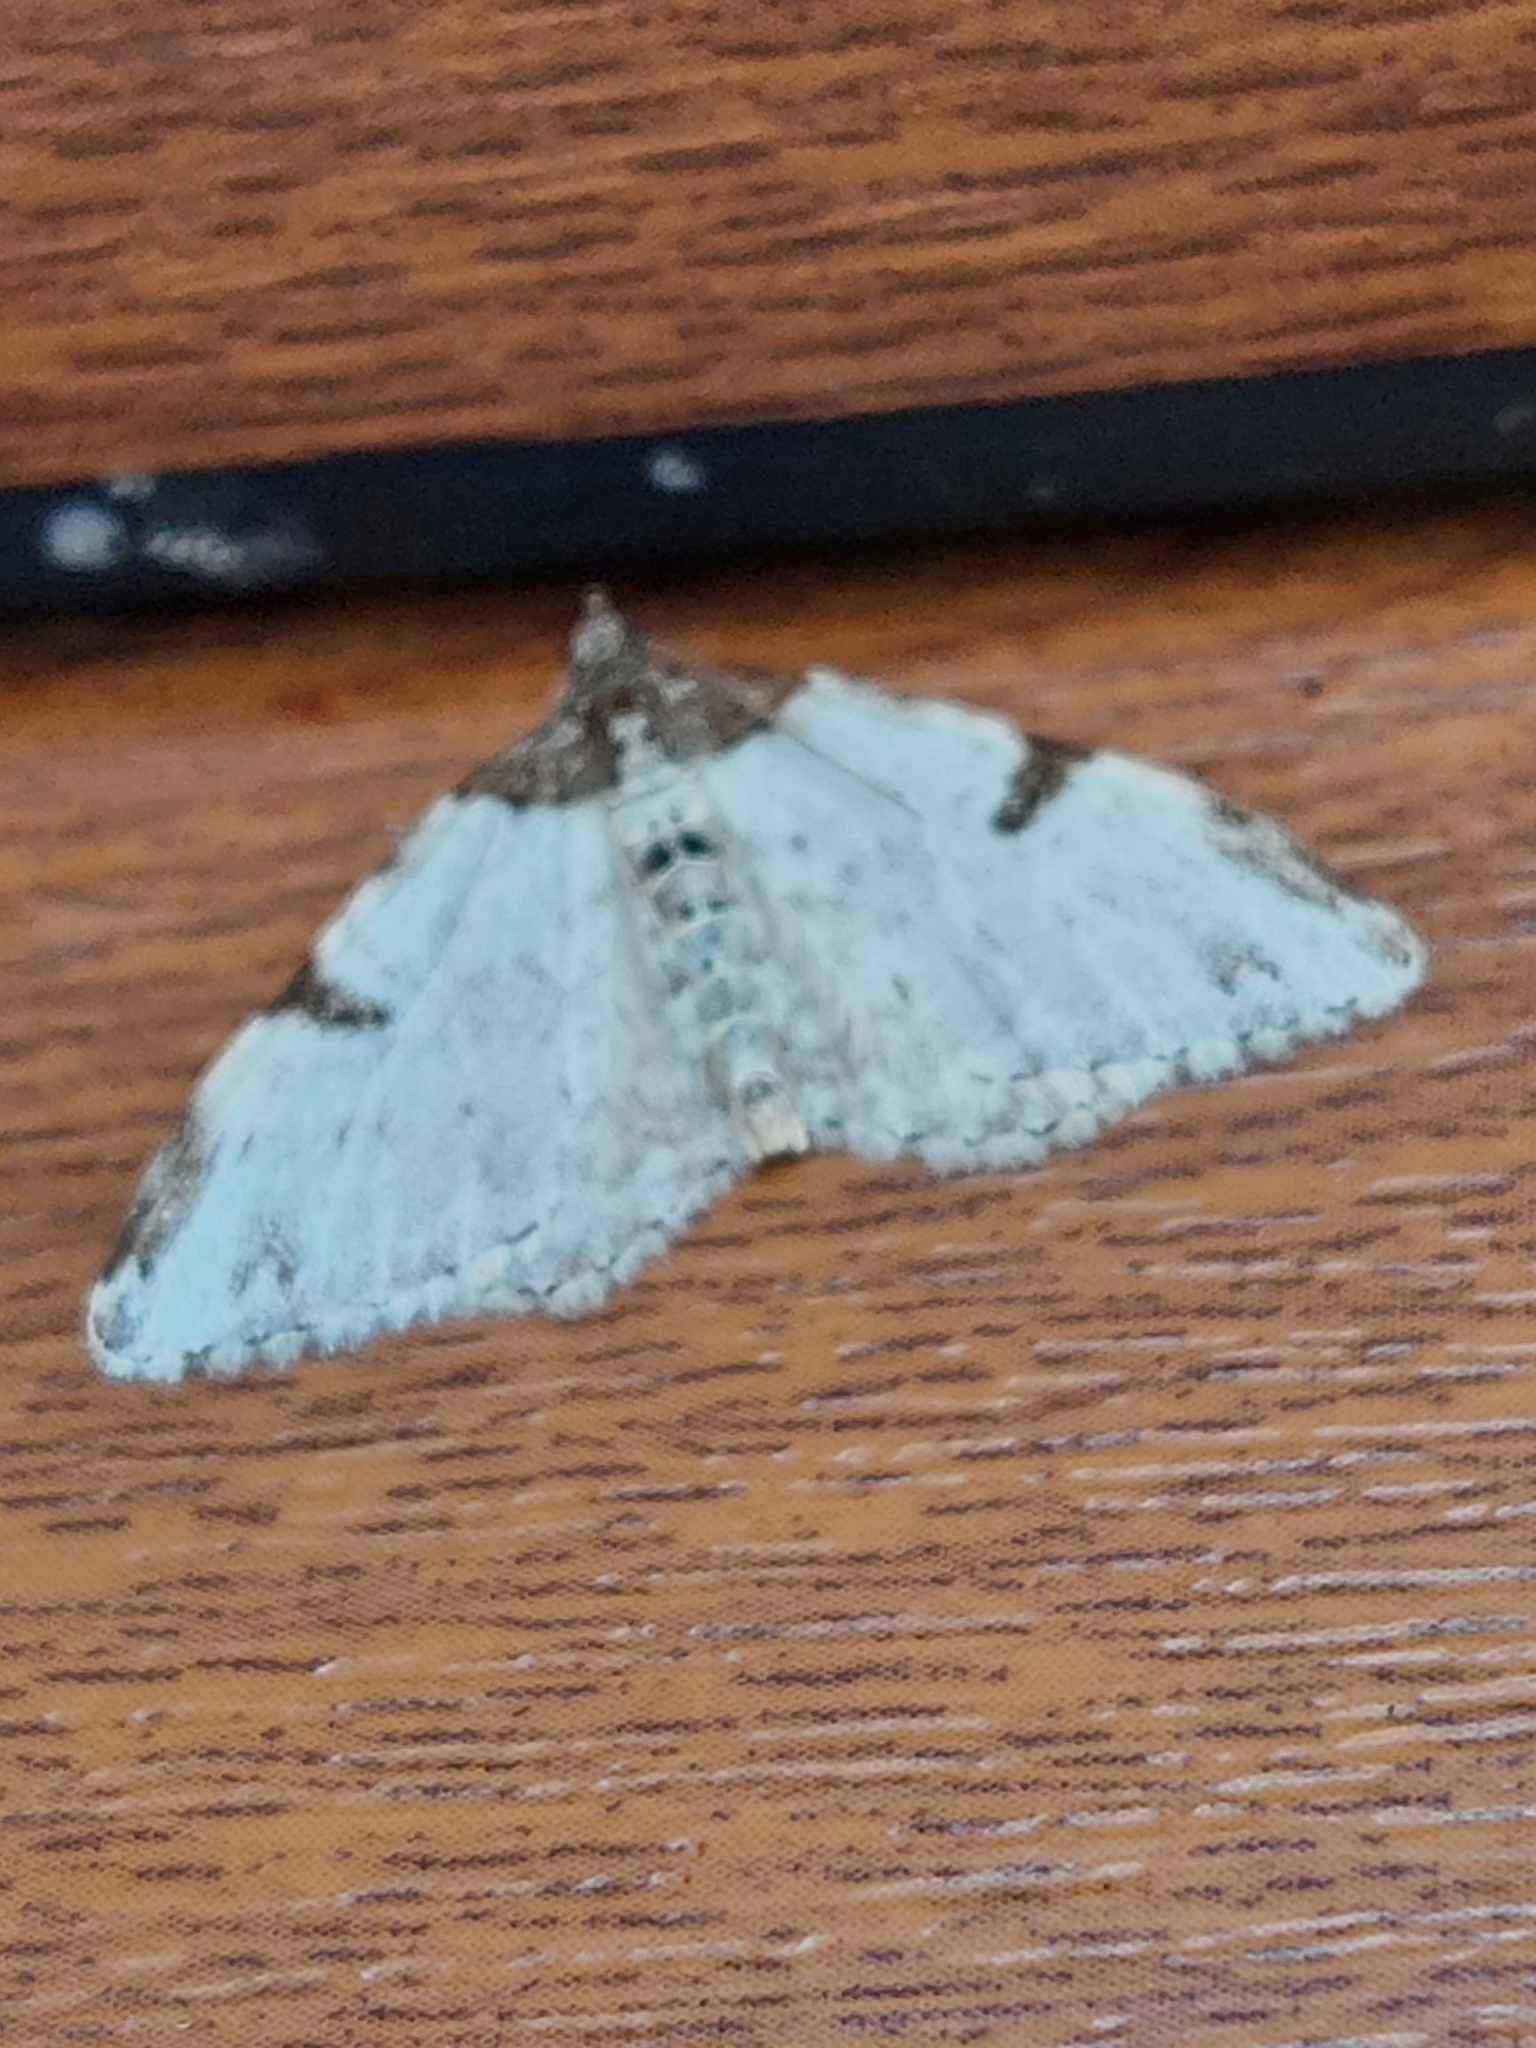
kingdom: Animalia
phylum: Arthropoda
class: Insecta
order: Lepidoptera
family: Geometridae
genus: Xanthorhoe
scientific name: Xanthorhoe fluctuata
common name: Garden carpet
